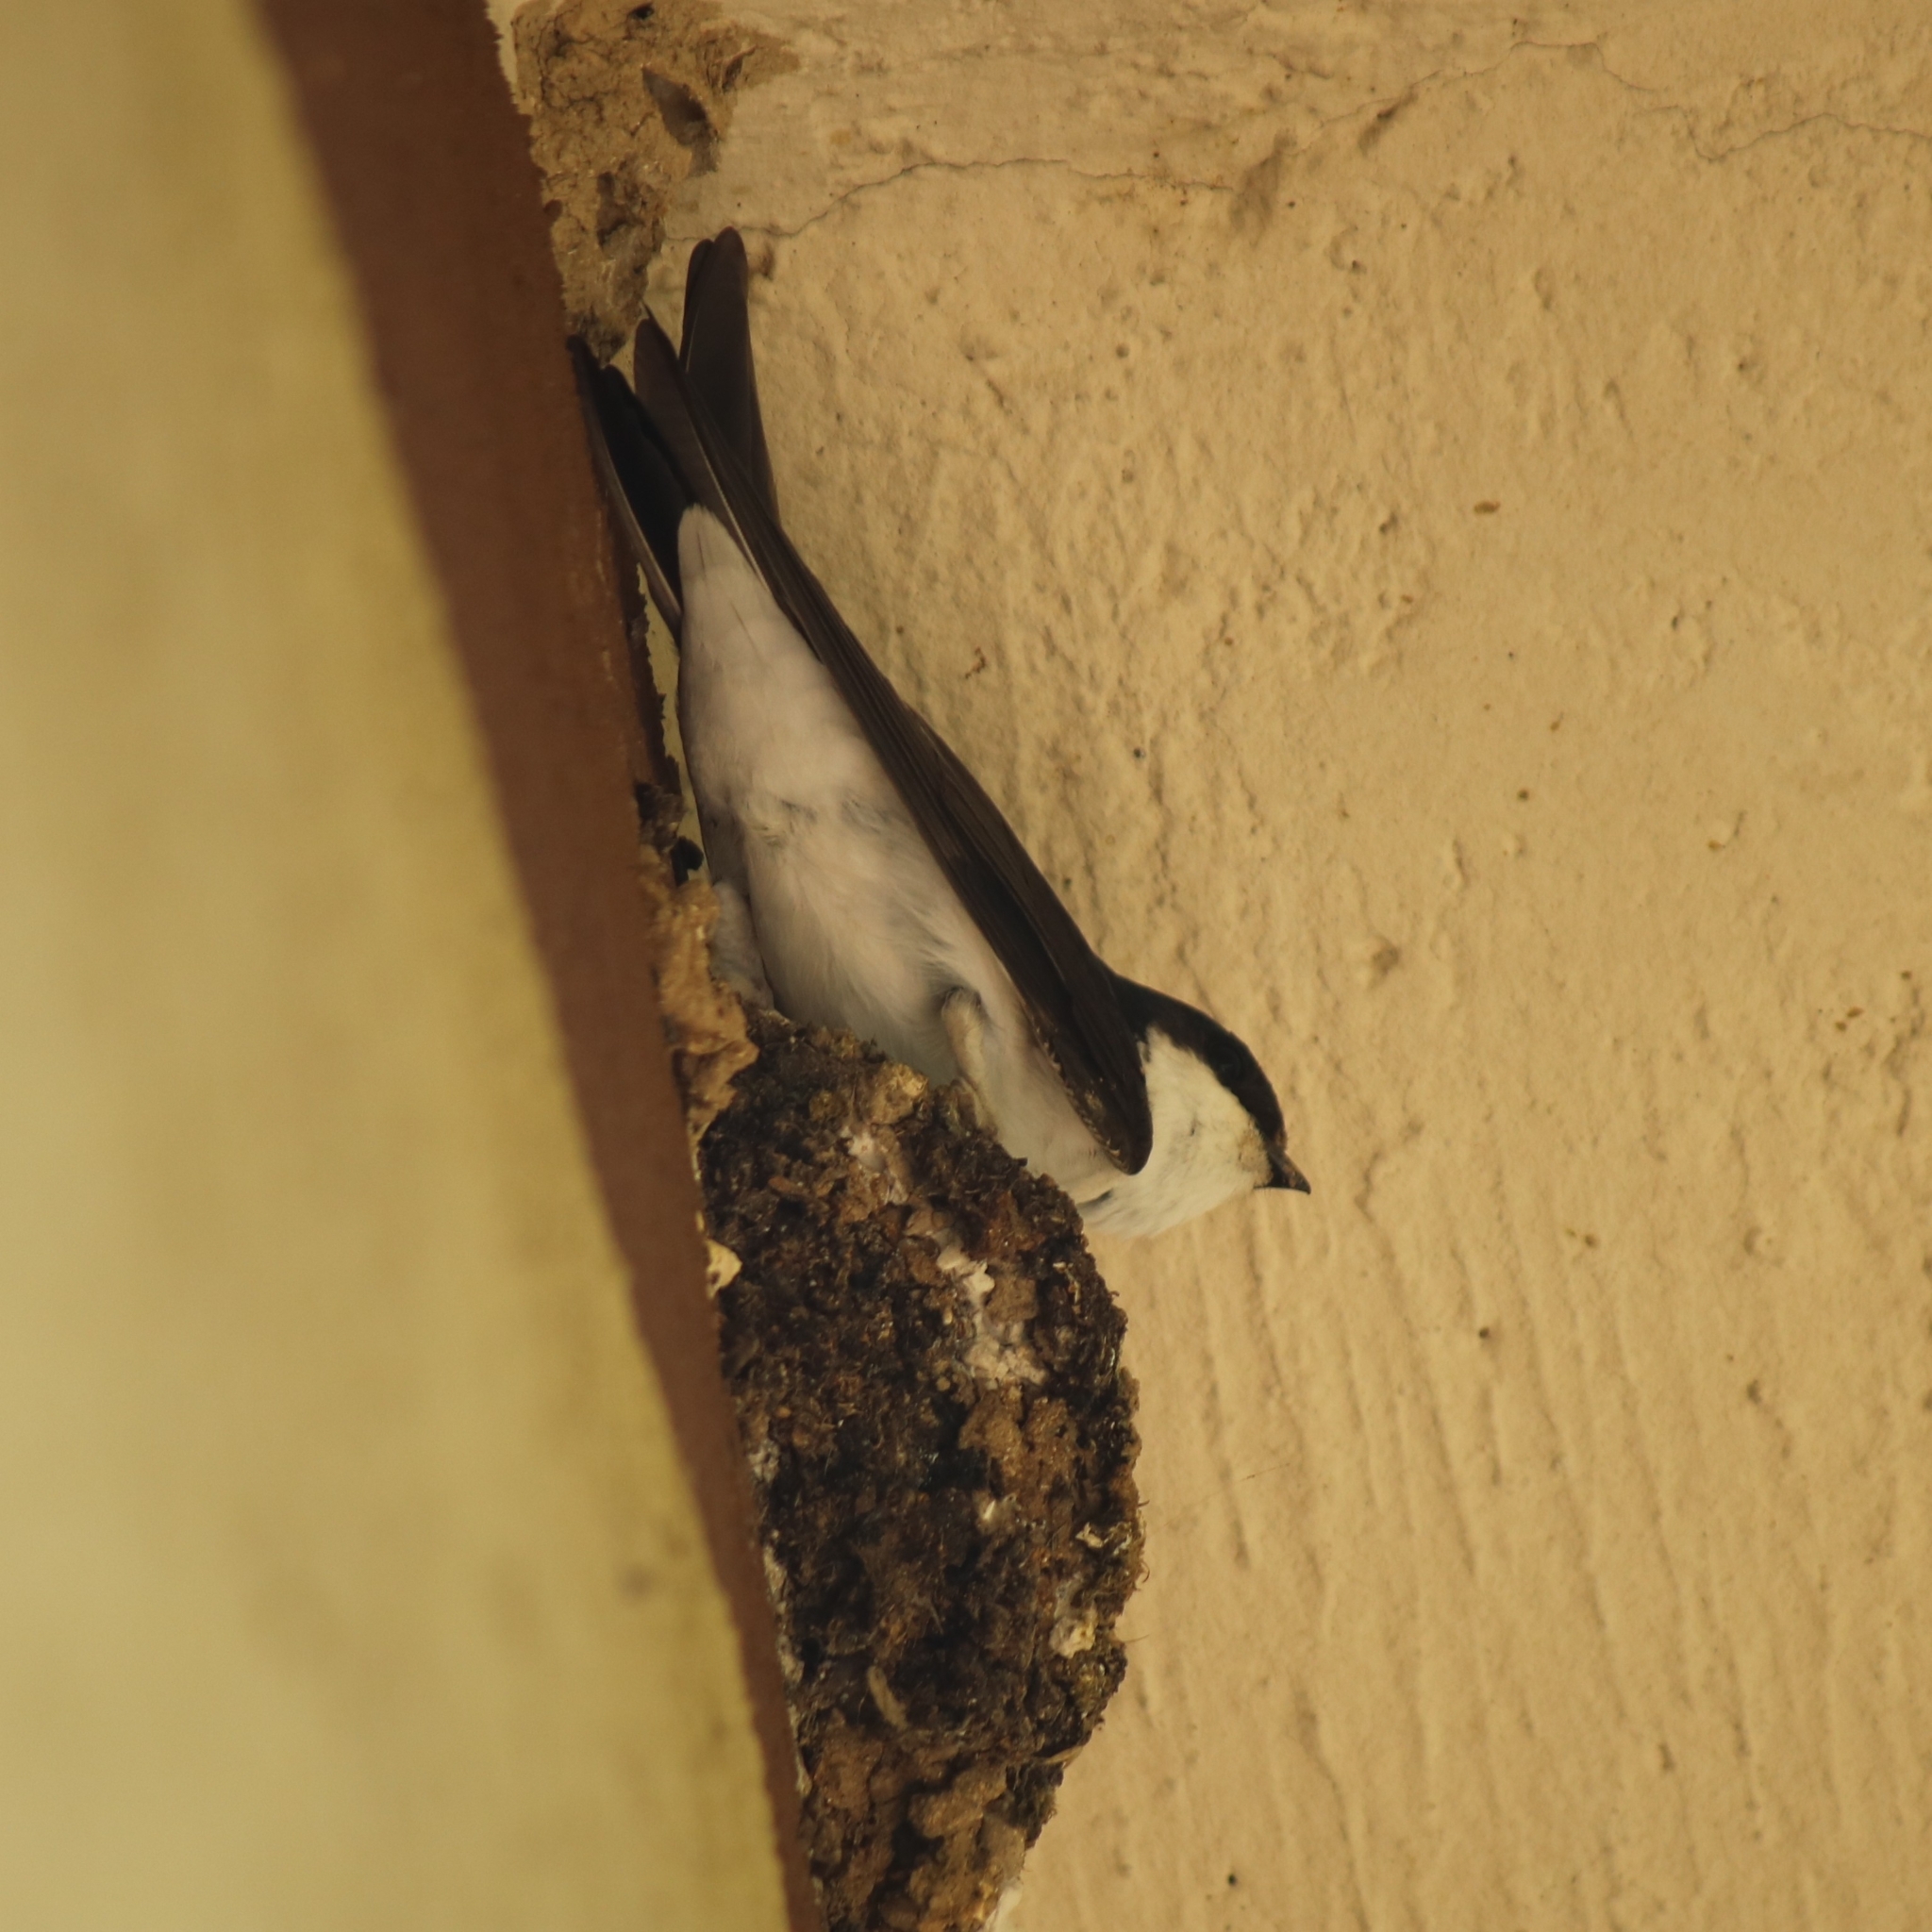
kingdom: Animalia
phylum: Chordata
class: Aves
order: Passeriformes
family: Hirundinidae
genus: Delichon
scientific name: Delichon urbicum
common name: Common house martin
